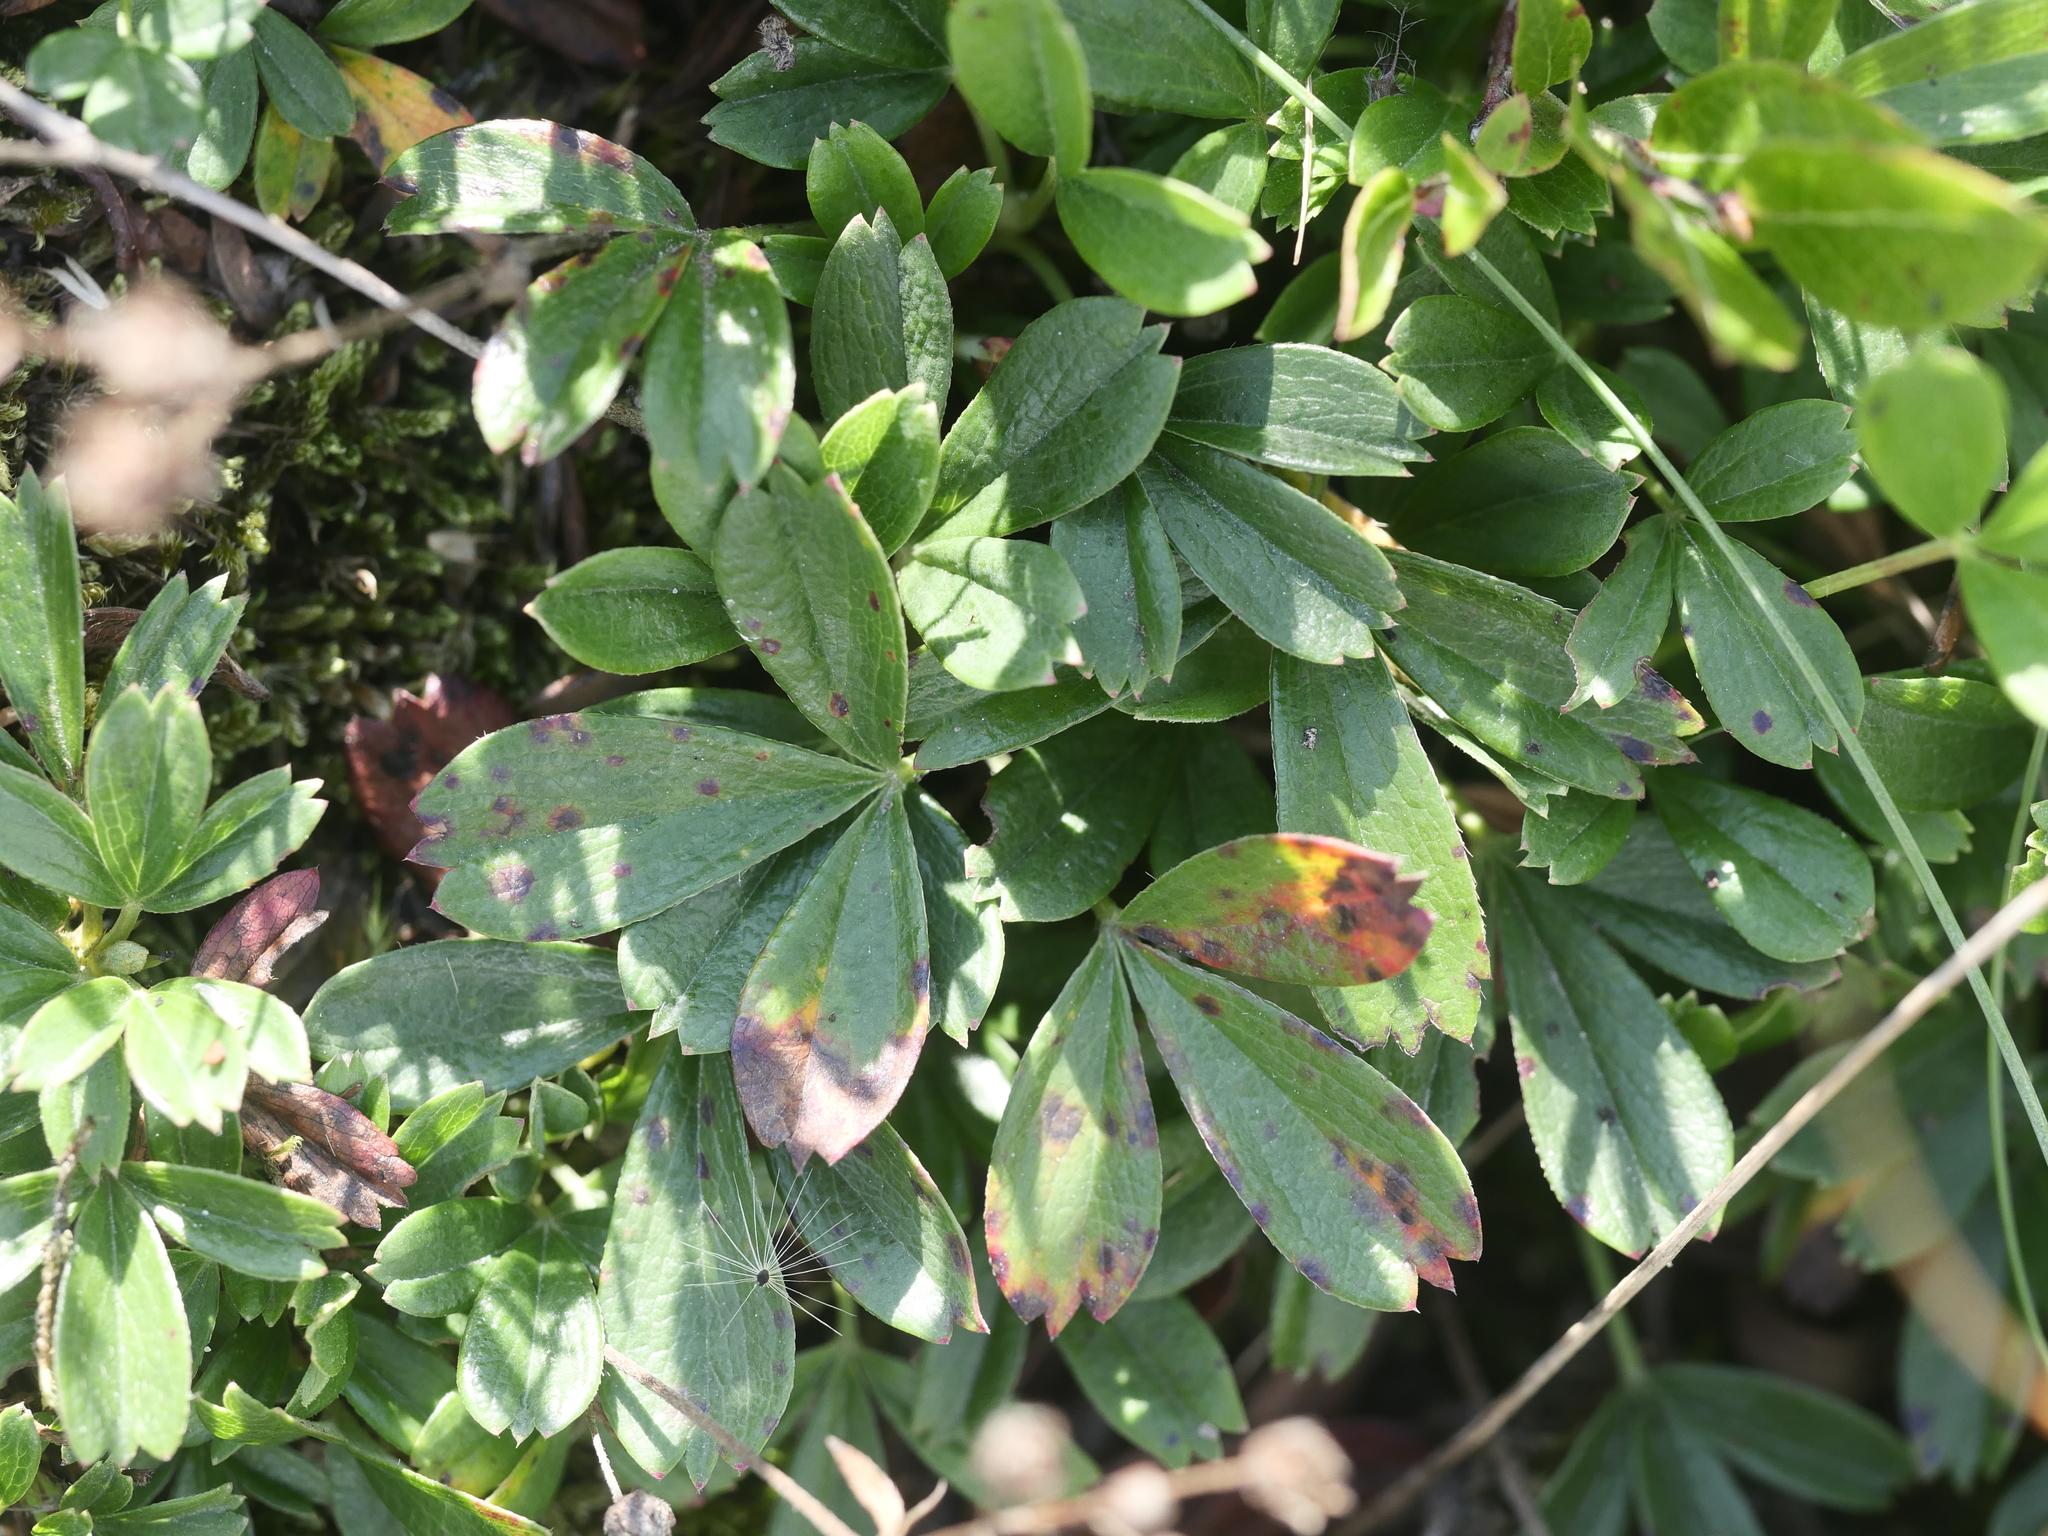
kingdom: Plantae
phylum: Tracheophyta
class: Magnoliopsida
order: Rosales
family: Rosaceae
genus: Sibbaldia
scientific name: Sibbaldia tridentata
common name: Three-toothed cinquefoil
